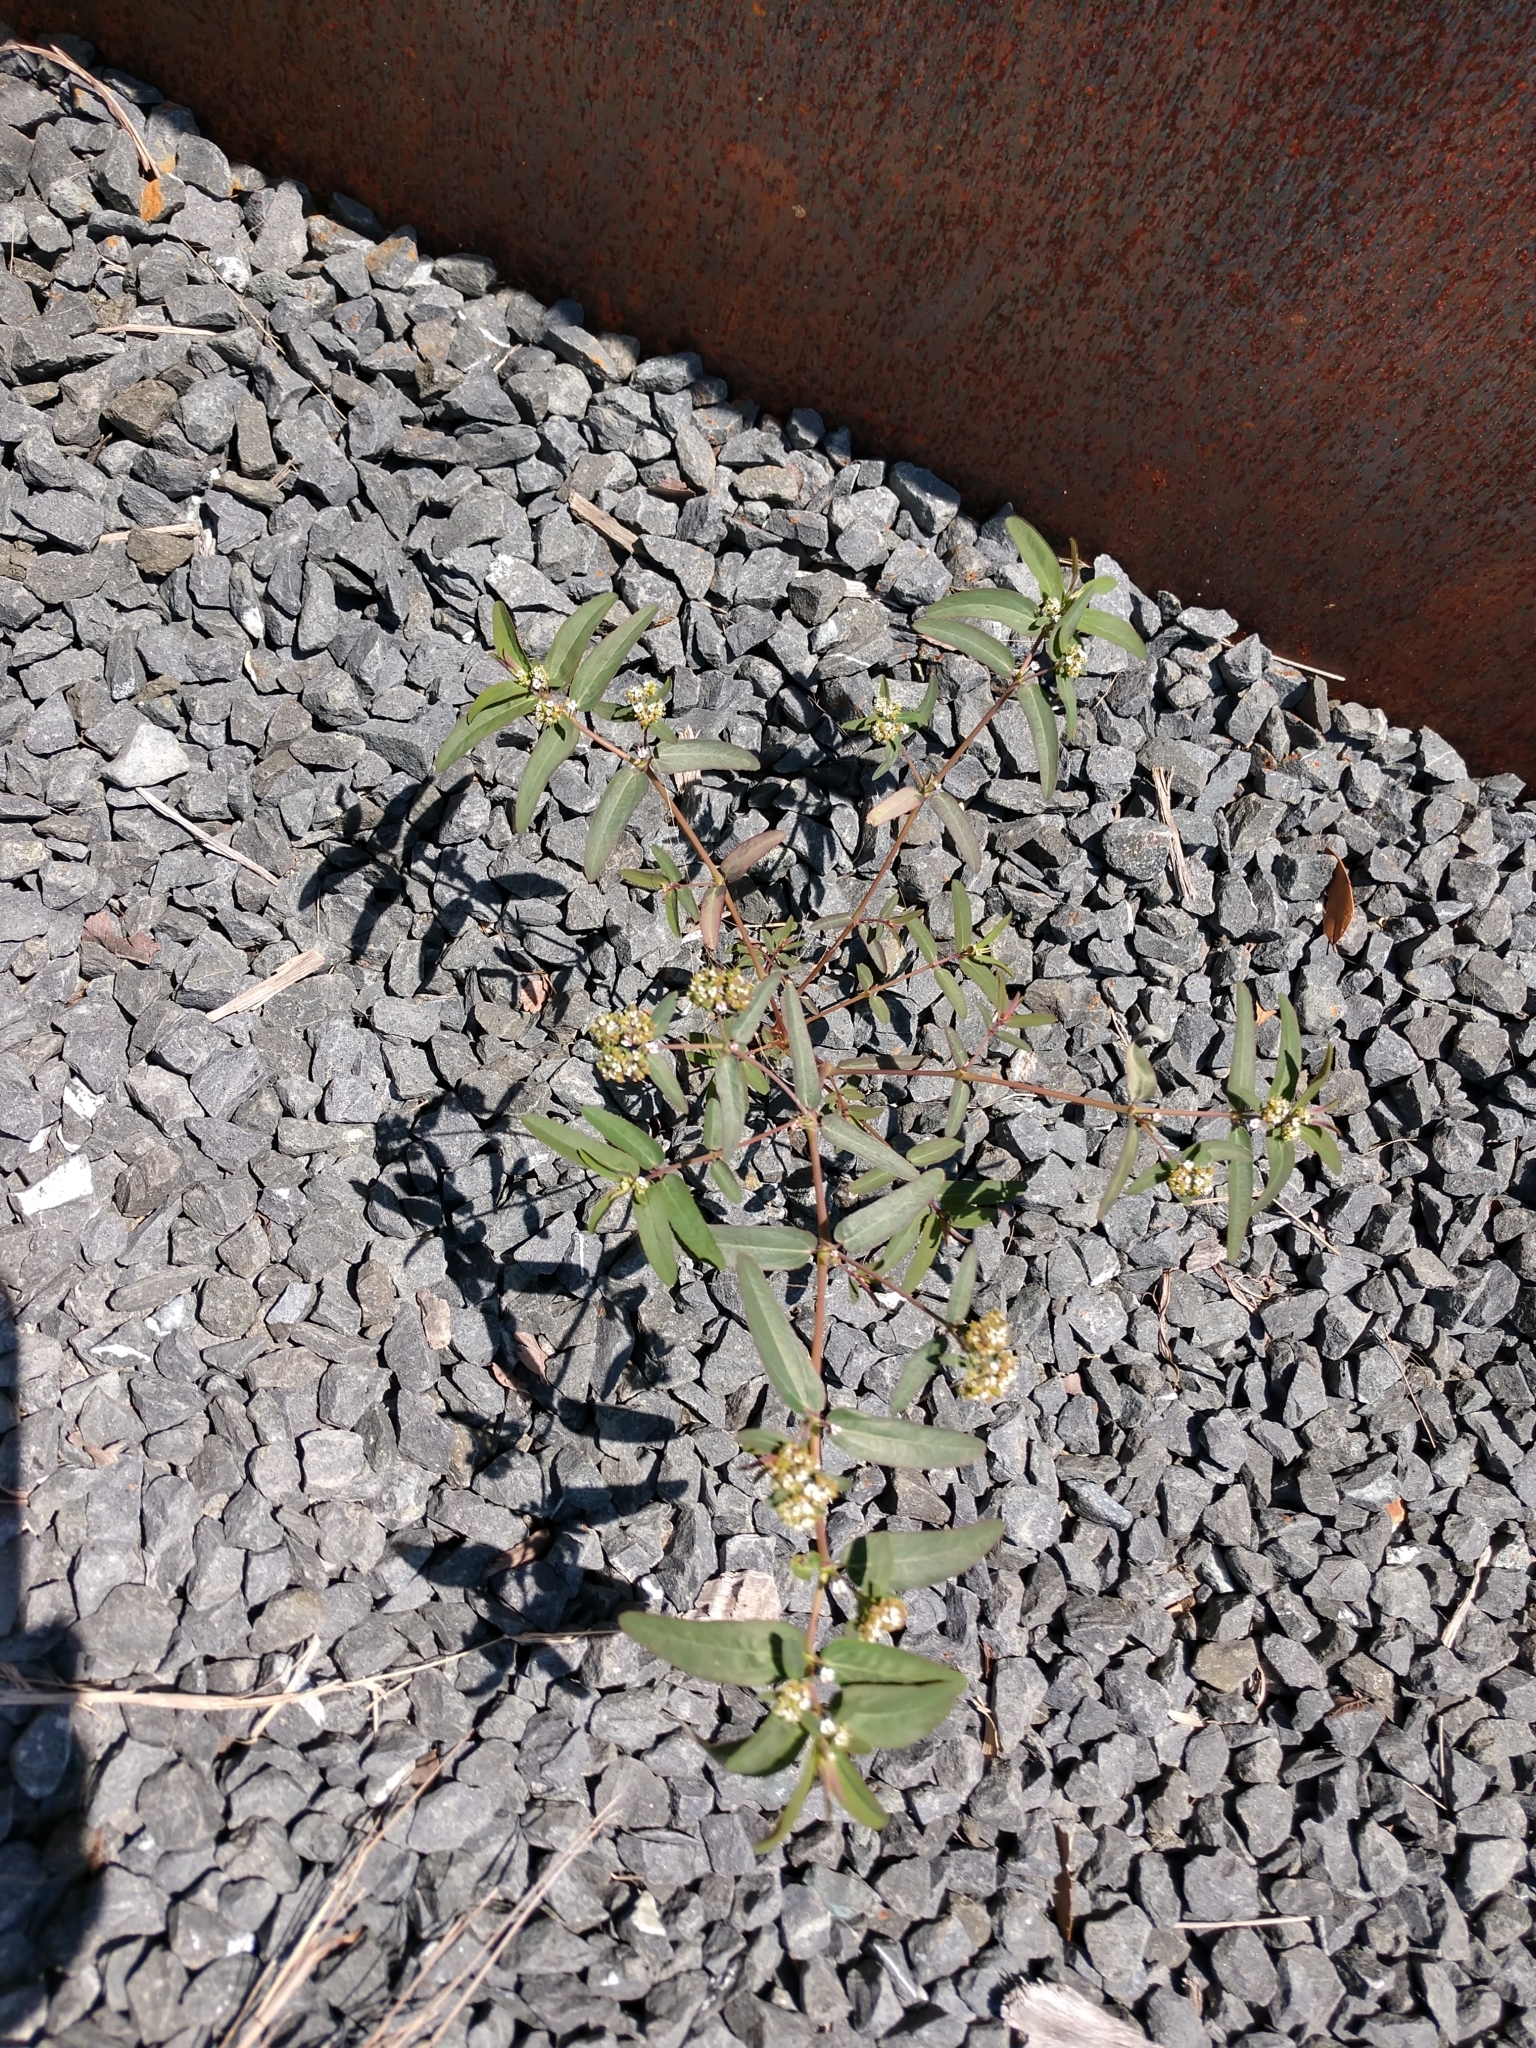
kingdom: Plantae
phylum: Tracheophyta
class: Magnoliopsida
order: Malpighiales
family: Euphorbiaceae
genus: Euphorbia
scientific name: Euphorbia hypericifolia
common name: Graceful sandmat
